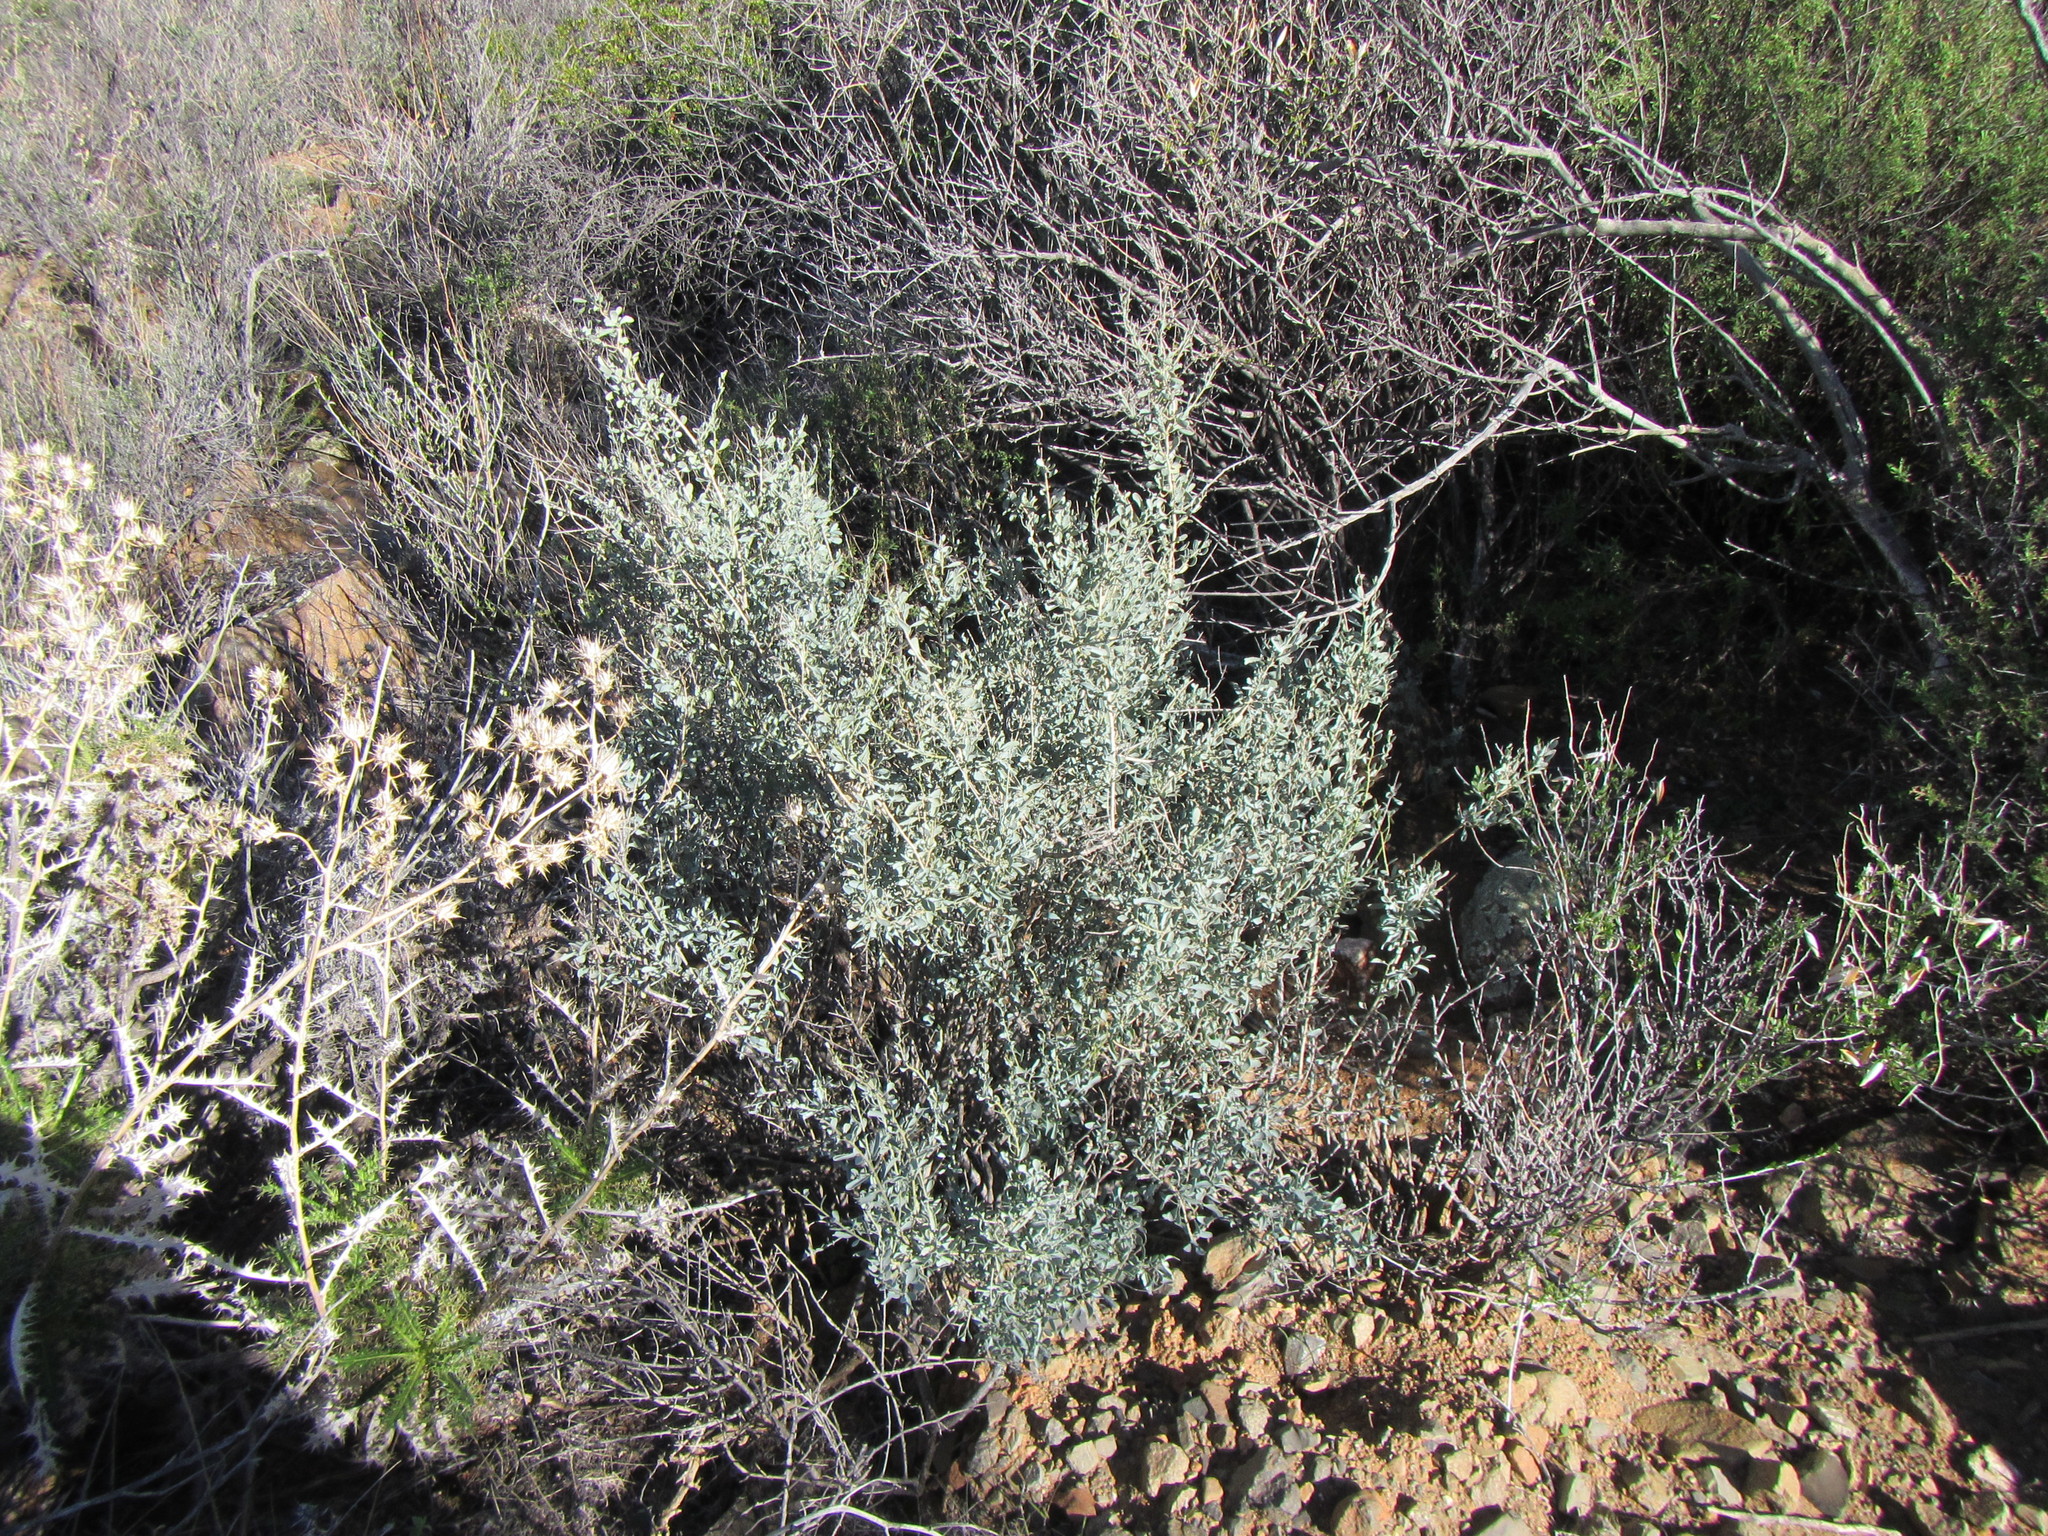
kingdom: Plantae
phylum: Tracheophyta
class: Magnoliopsida
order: Ranunculales
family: Menispermaceae
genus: Antizoma
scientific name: Antizoma miersiana
